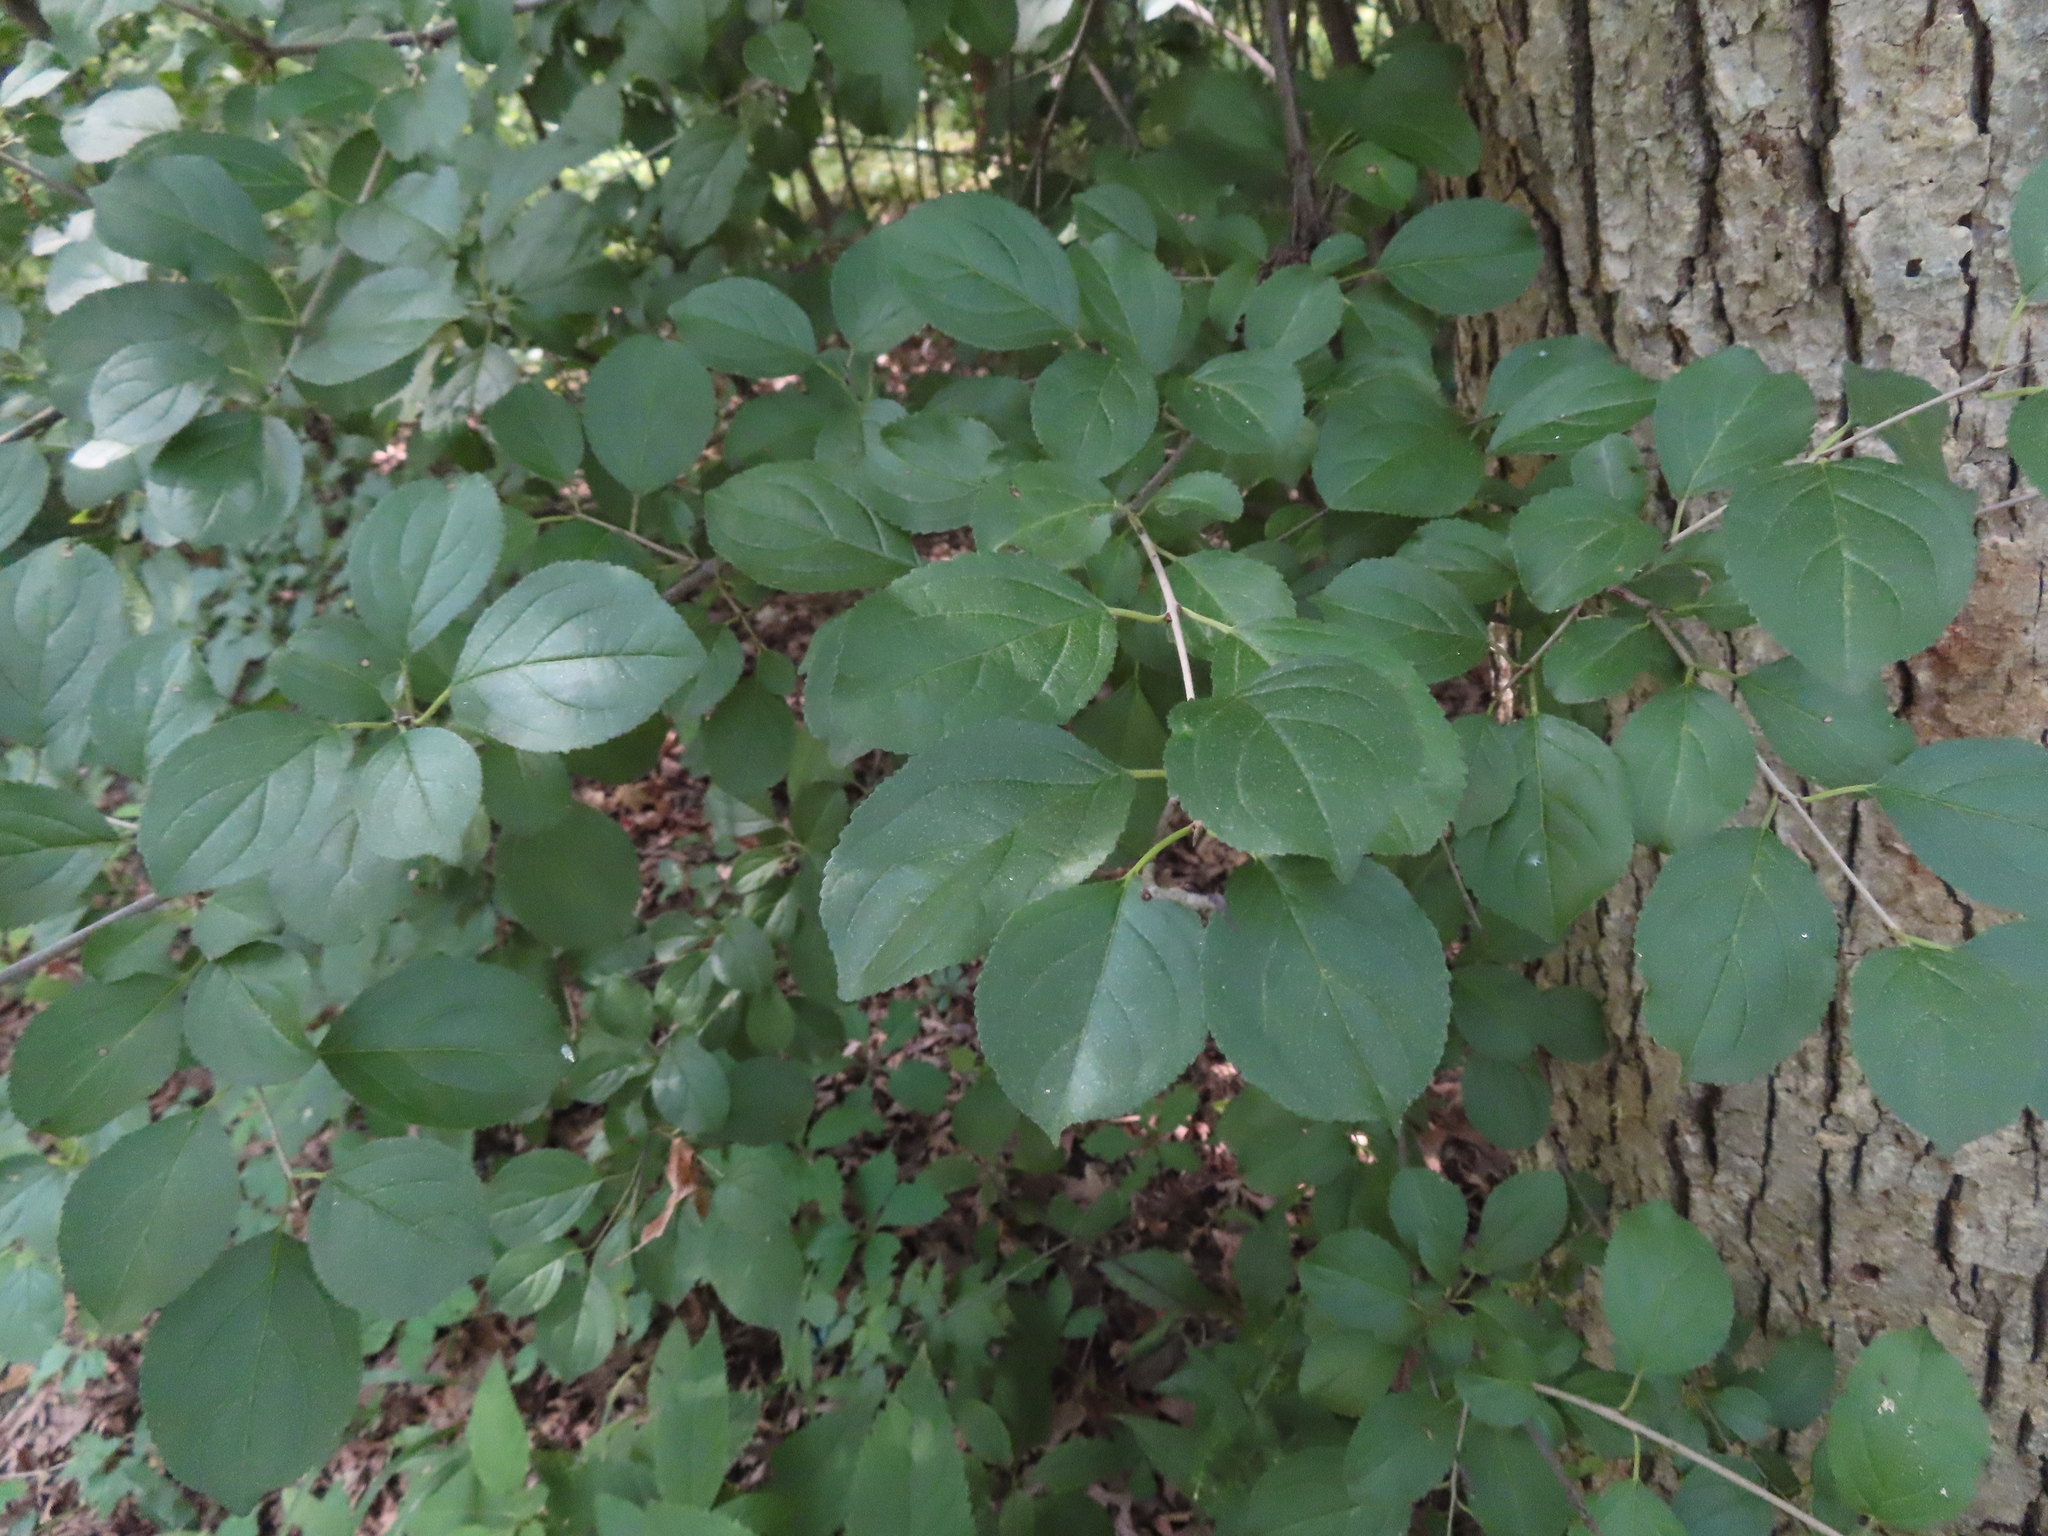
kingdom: Plantae
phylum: Tracheophyta
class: Magnoliopsida
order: Rosales
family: Rhamnaceae
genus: Rhamnus
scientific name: Rhamnus cathartica
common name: Common buckthorn
